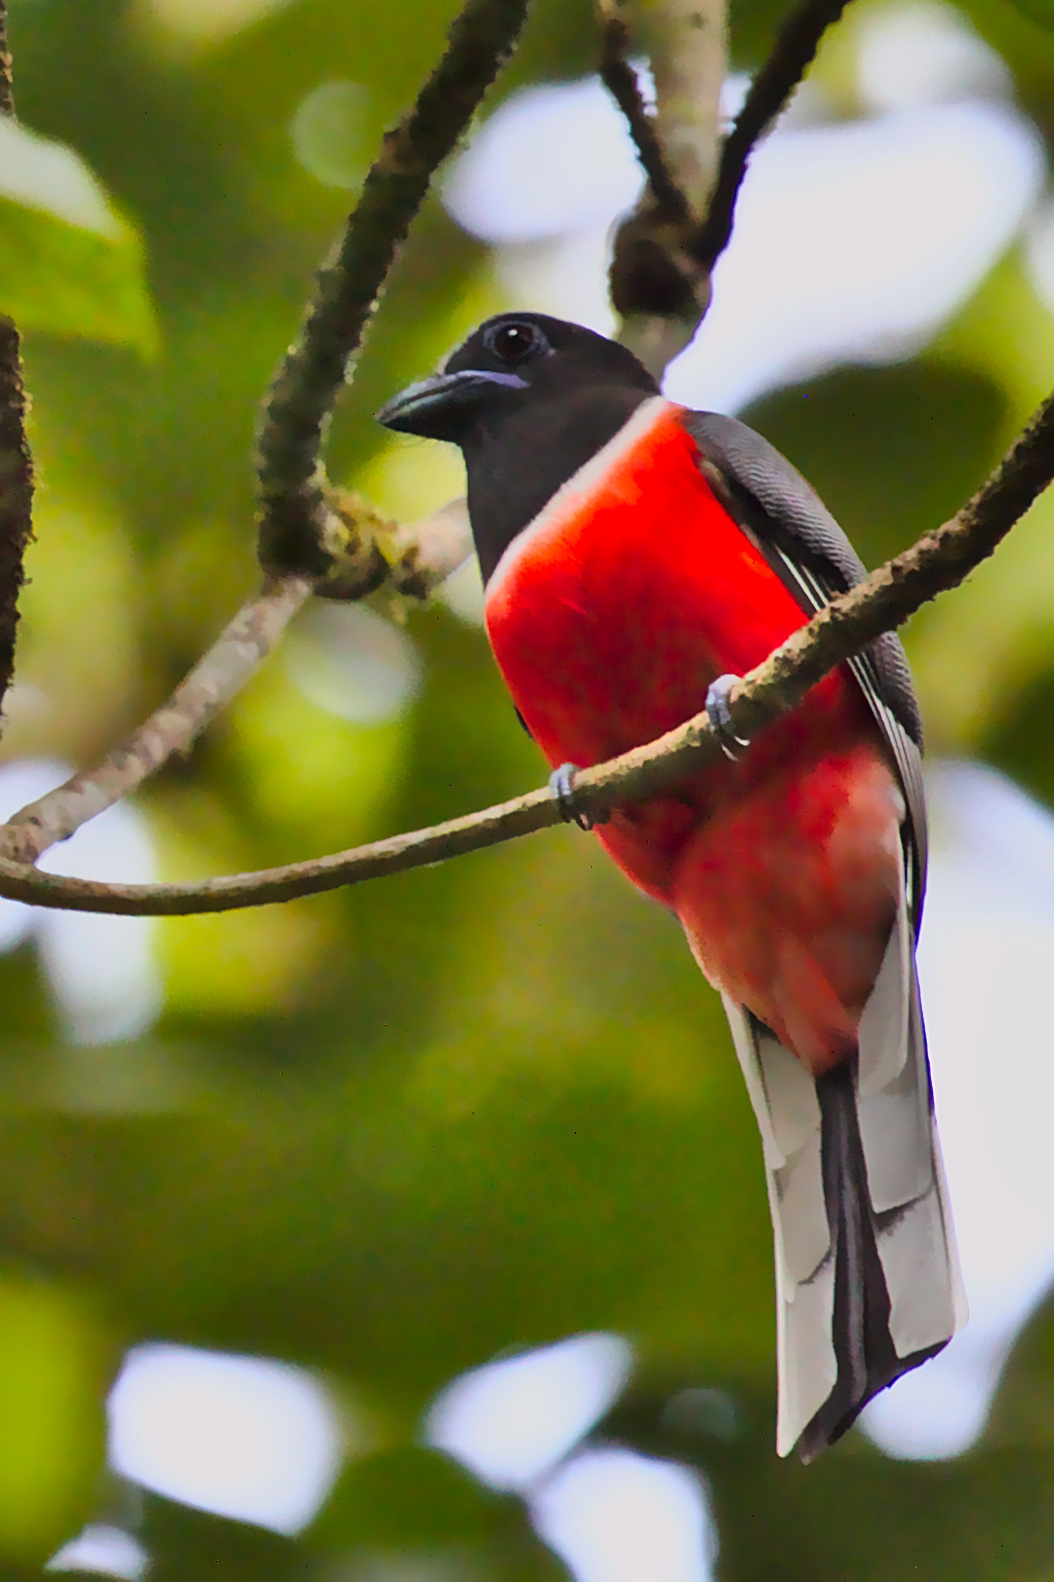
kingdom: Animalia
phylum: Chordata
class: Aves
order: Trogoniformes
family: Trogonidae
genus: Harpactes
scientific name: Harpactes fasciatus
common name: Malabar trogon
